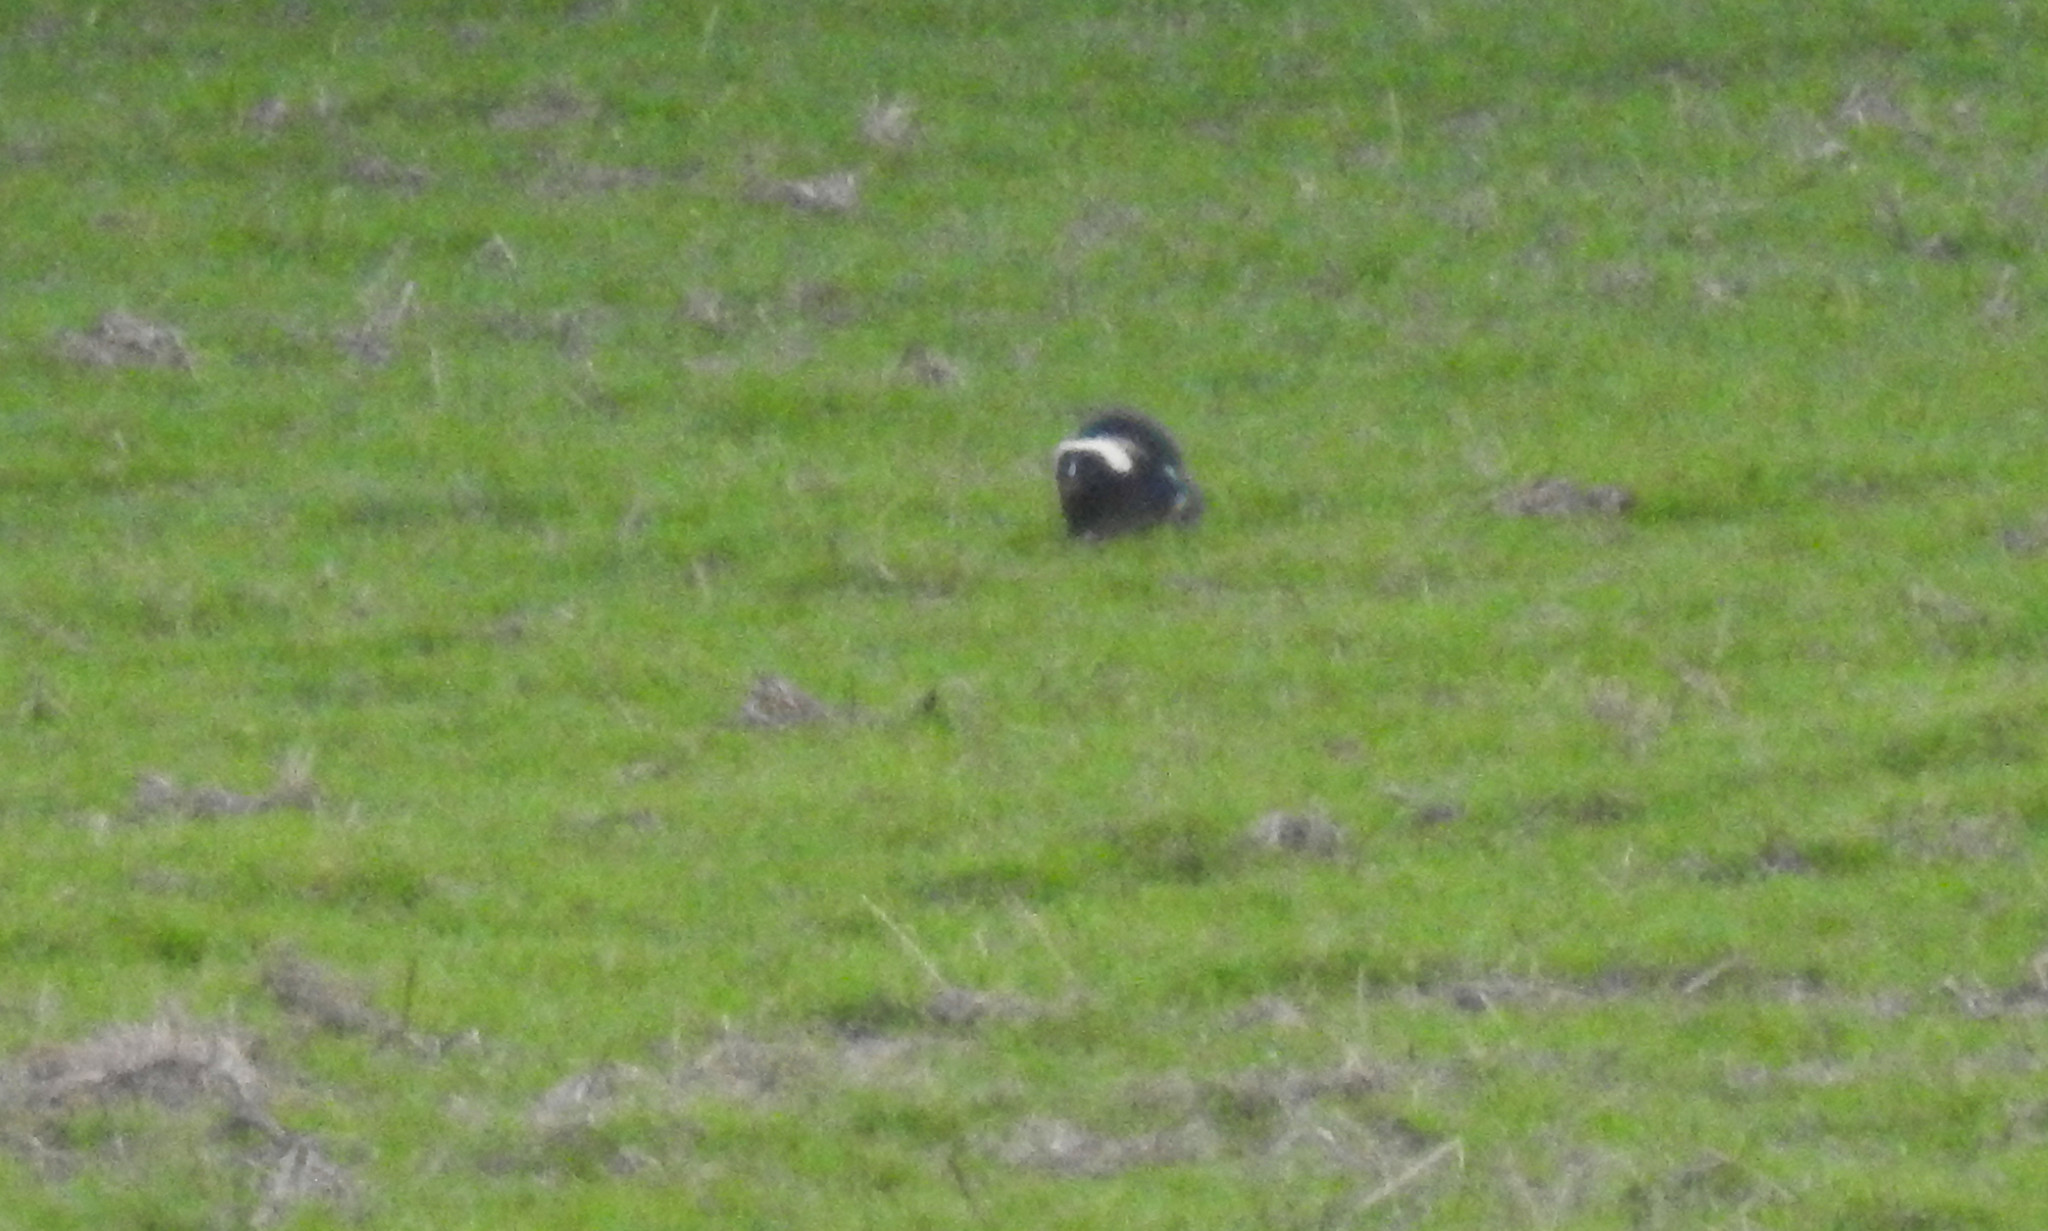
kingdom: Animalia
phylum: Chordata
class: Mammalia
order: Carnivora
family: Mephitidae
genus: Mephitis
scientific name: Mephitis mephitis
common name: Striped skunk
